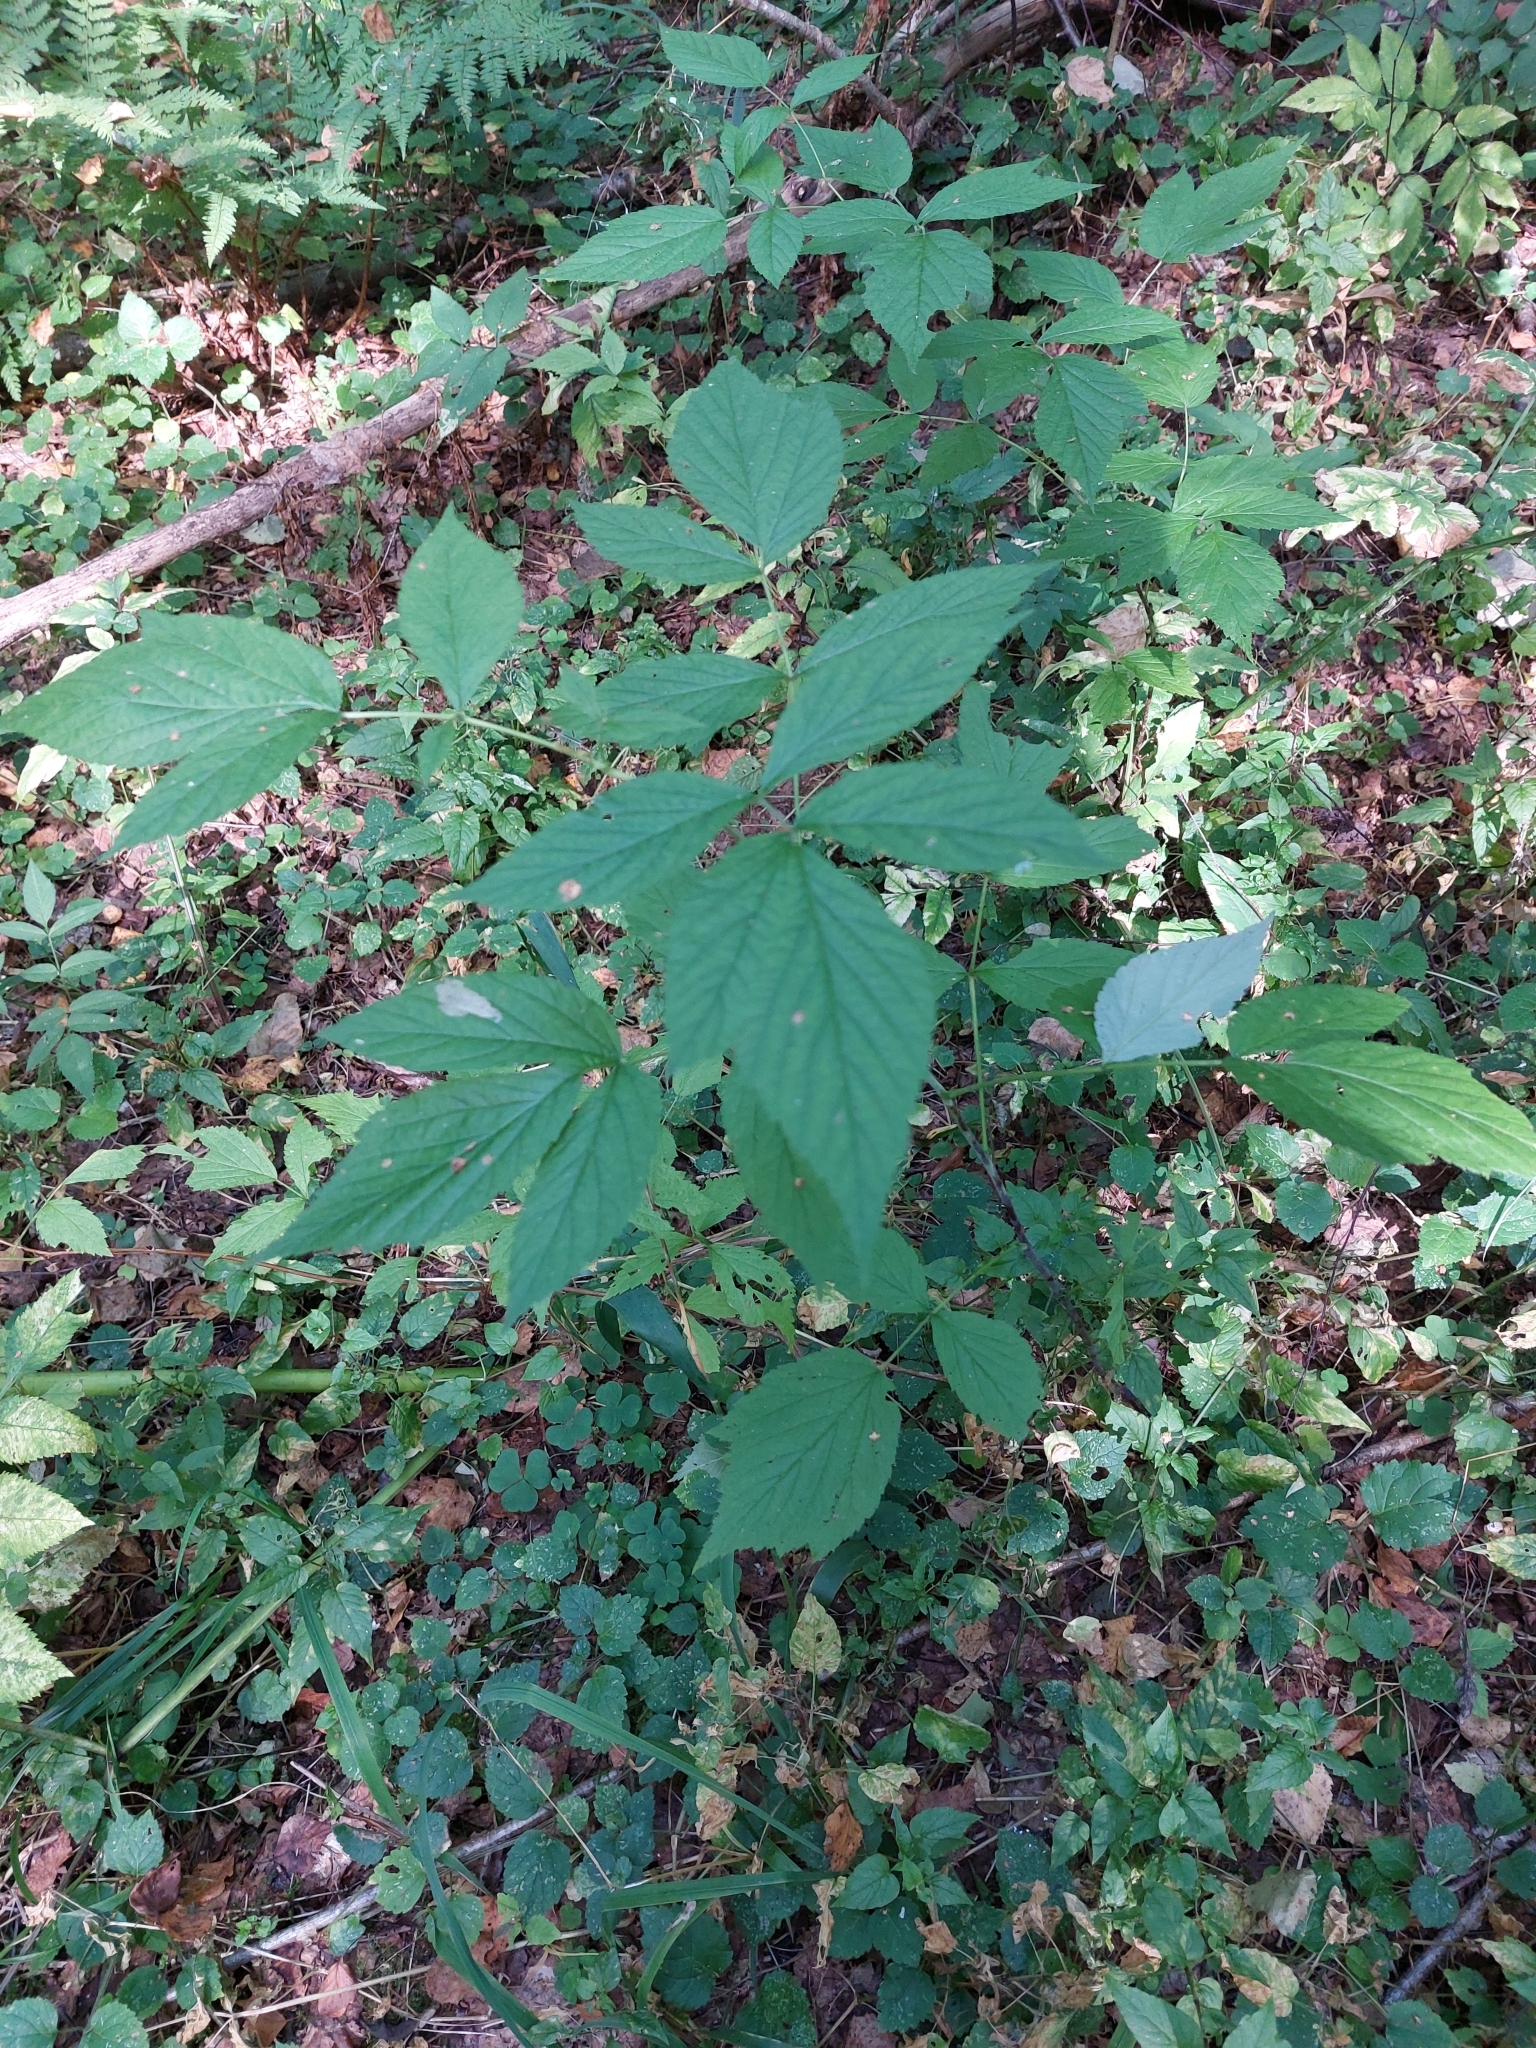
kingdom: Plantae
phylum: Tracheophyta
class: Magnoliopsida
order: Rosales
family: Rosaceae
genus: Rubus
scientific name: Rubus idaeus
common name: Raspberry
